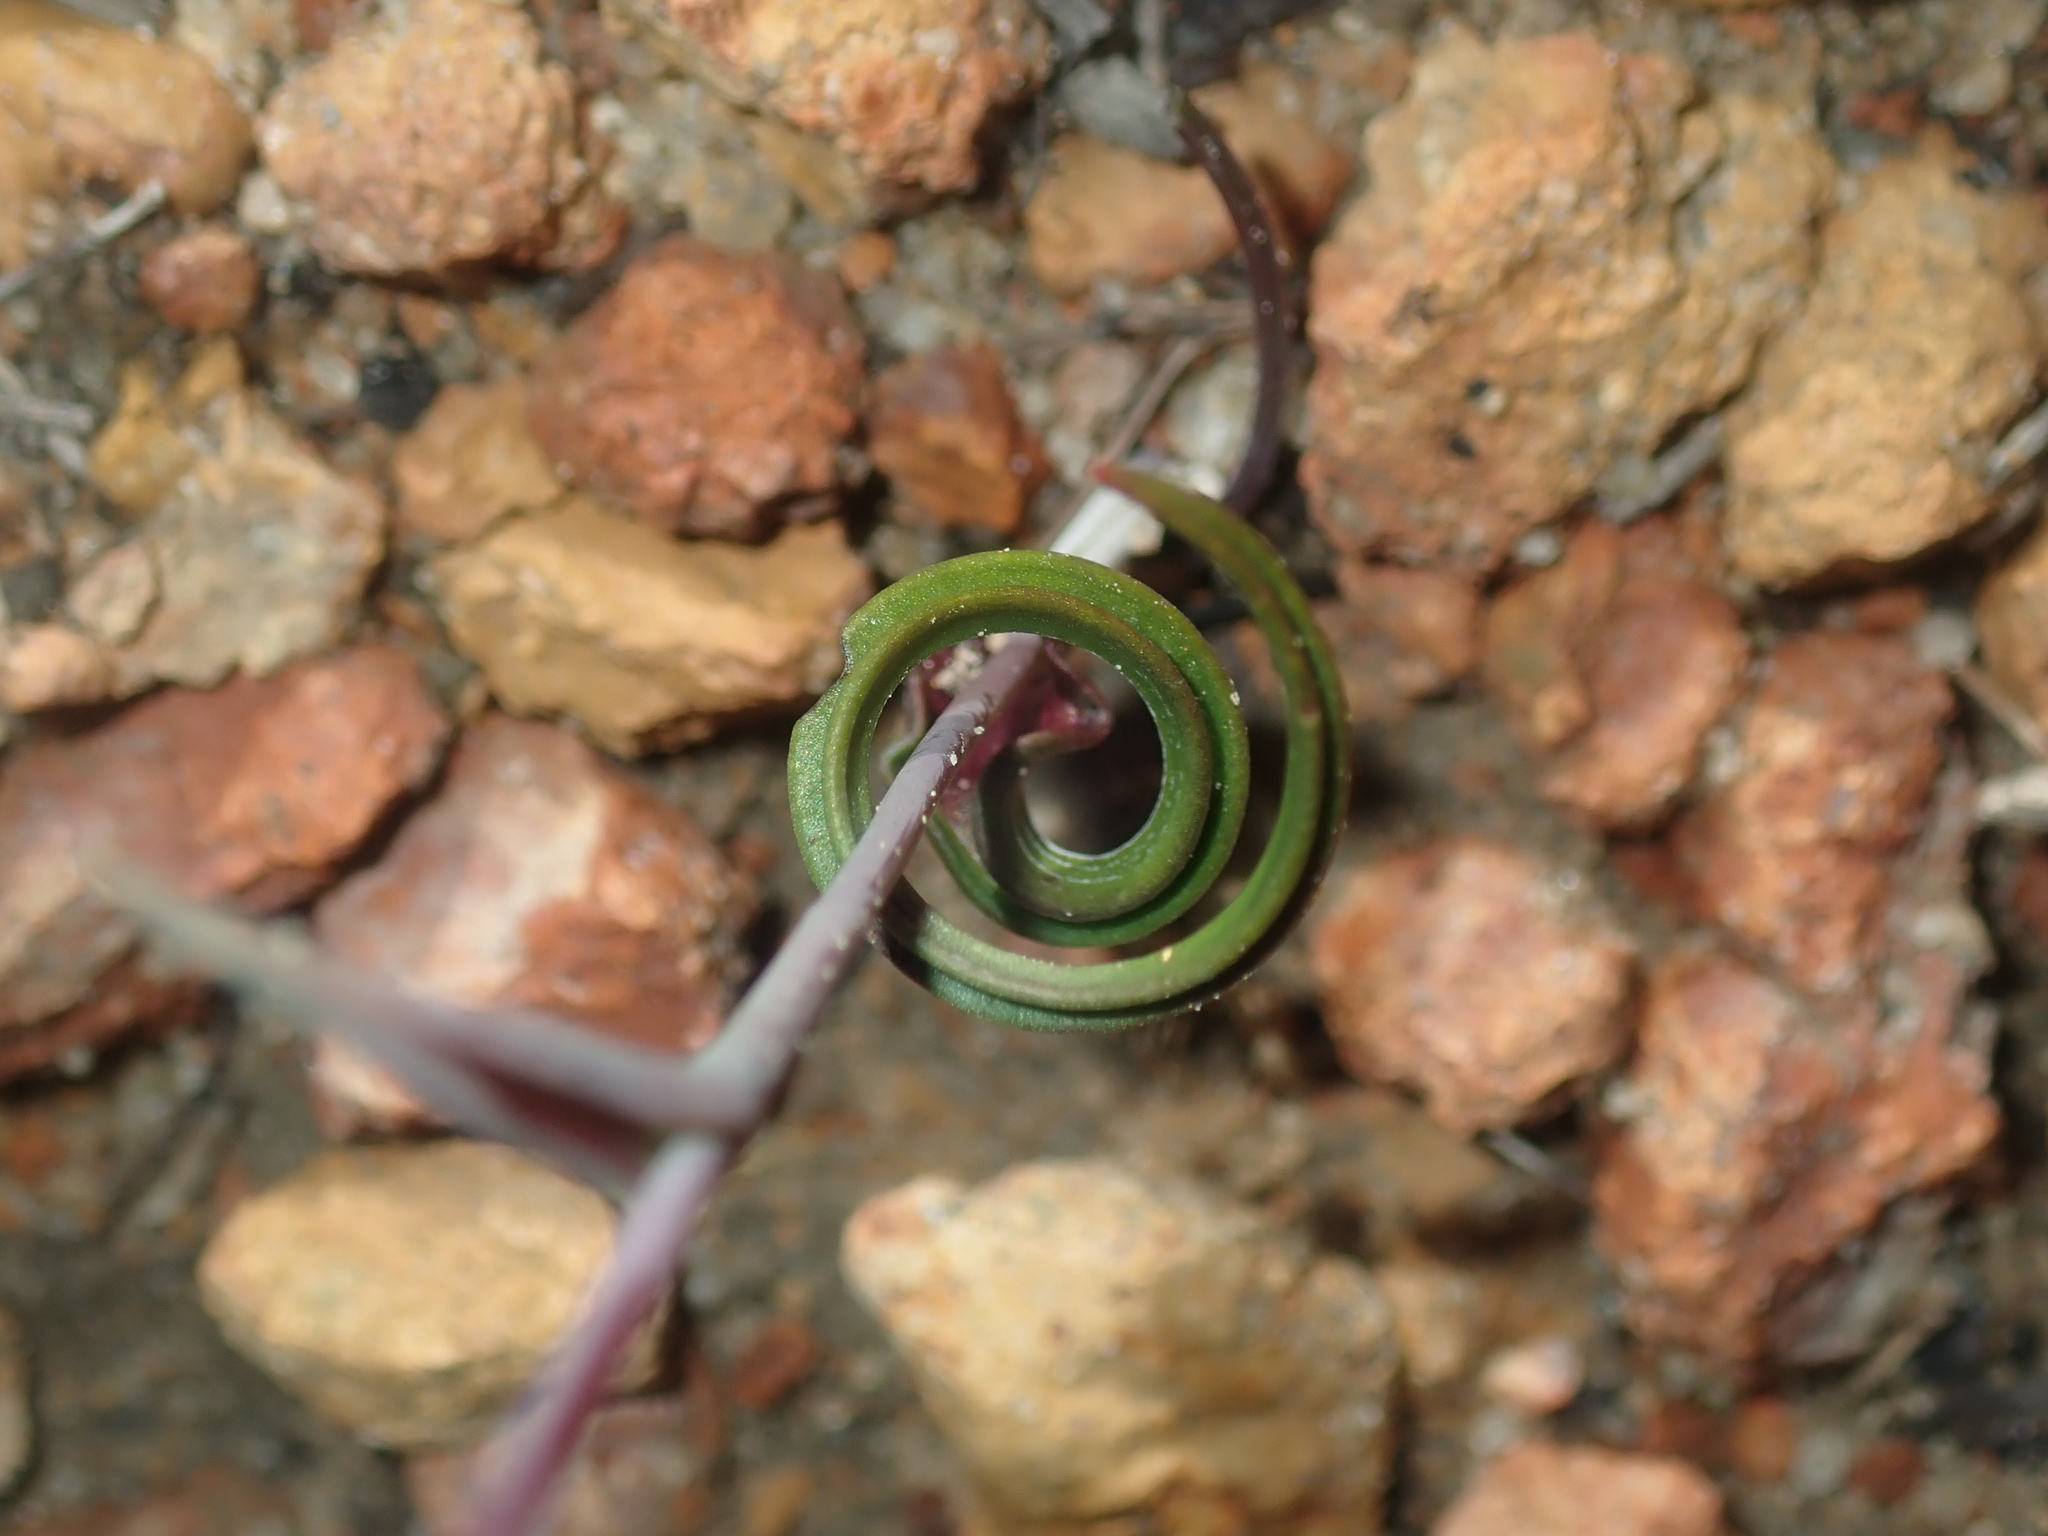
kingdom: Plantae
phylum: Tracheophyta
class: Liliopsida
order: Asparagales
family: Orchidaceae
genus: Thelymitra
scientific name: Thelymitra pulcherrima
